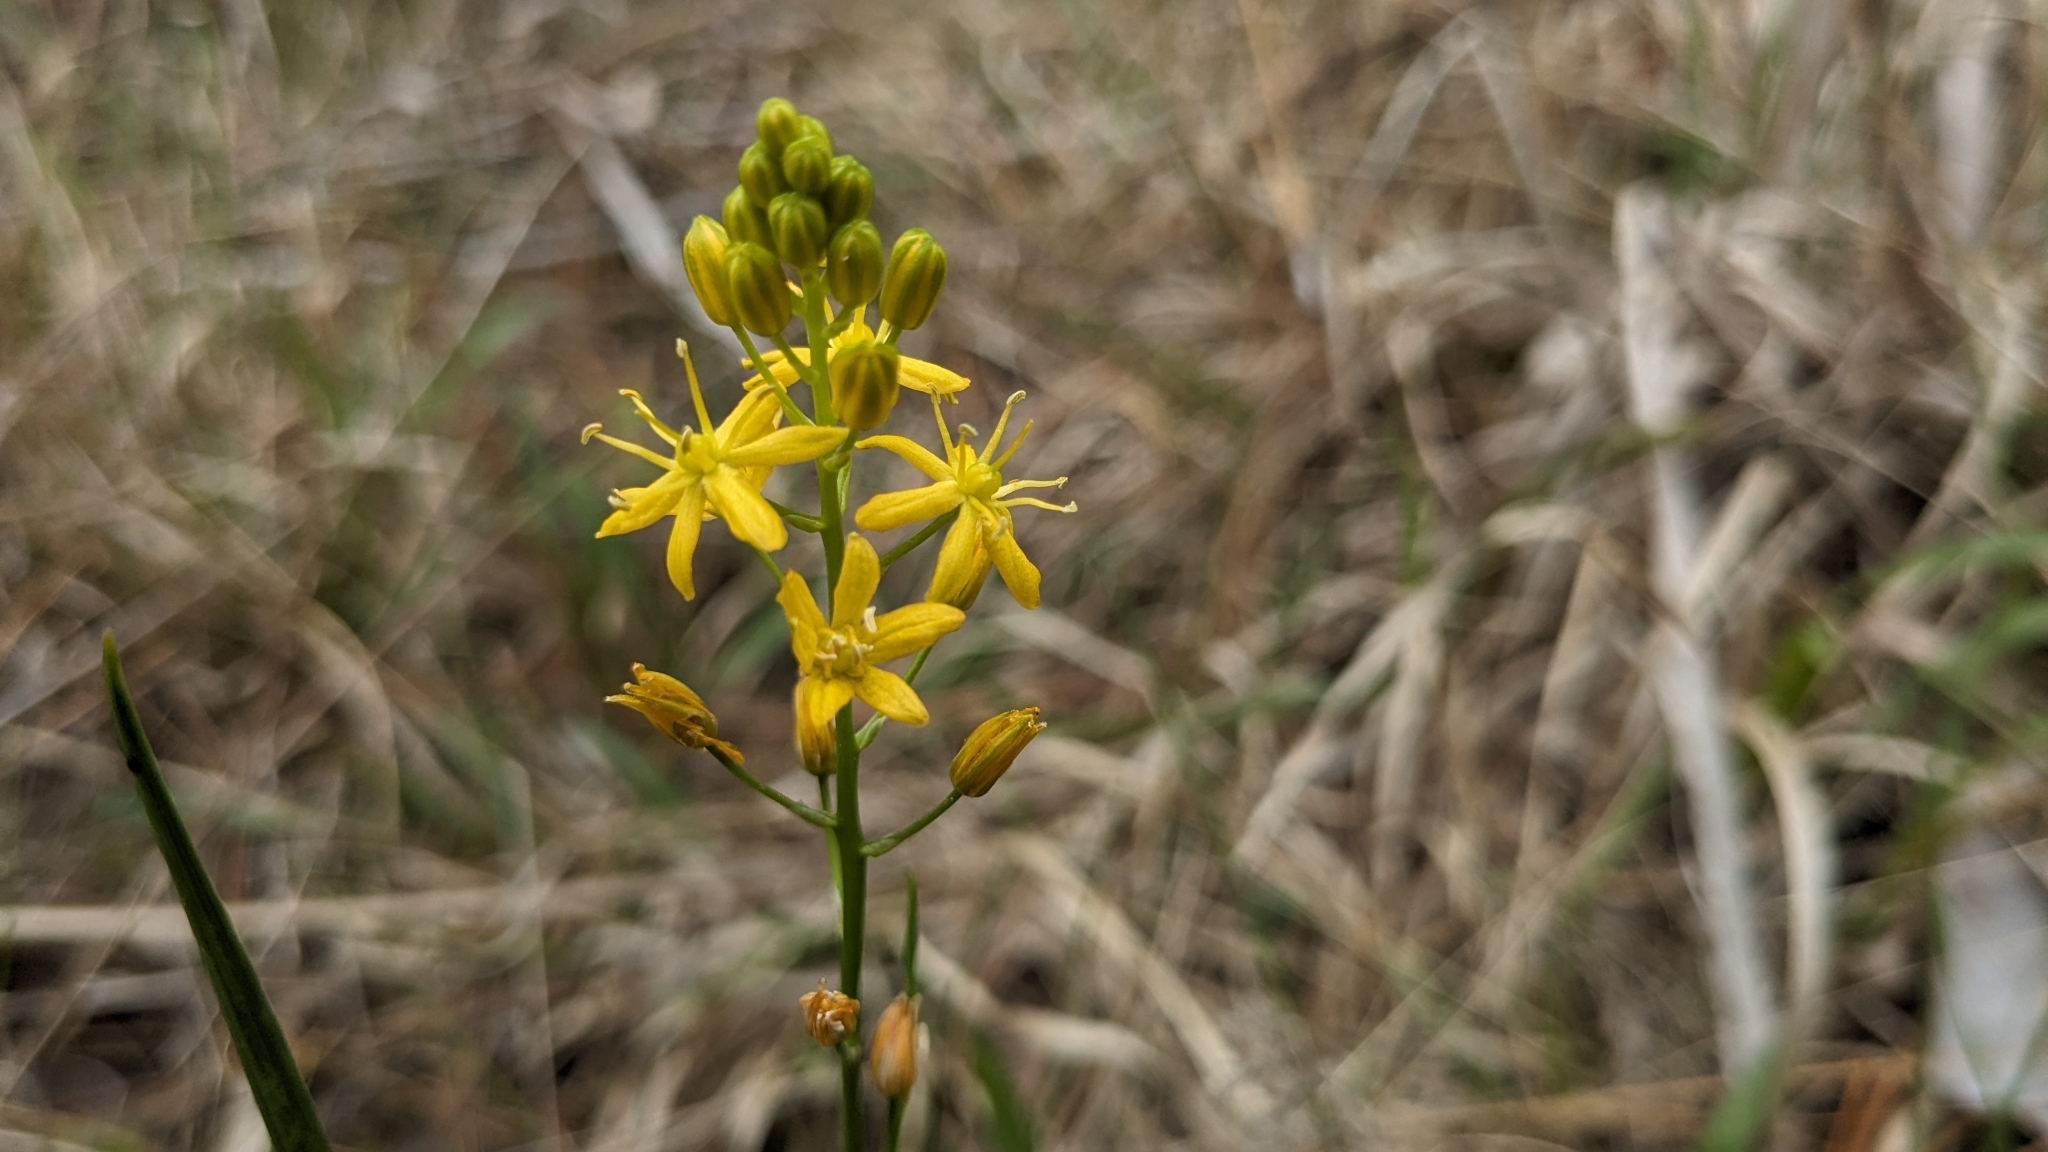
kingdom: Plantae
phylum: Tracheophyta
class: Liliopsida
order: Asparagales
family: Asparagaceae
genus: Schoenolirion
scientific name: Schoenolirion croceum
